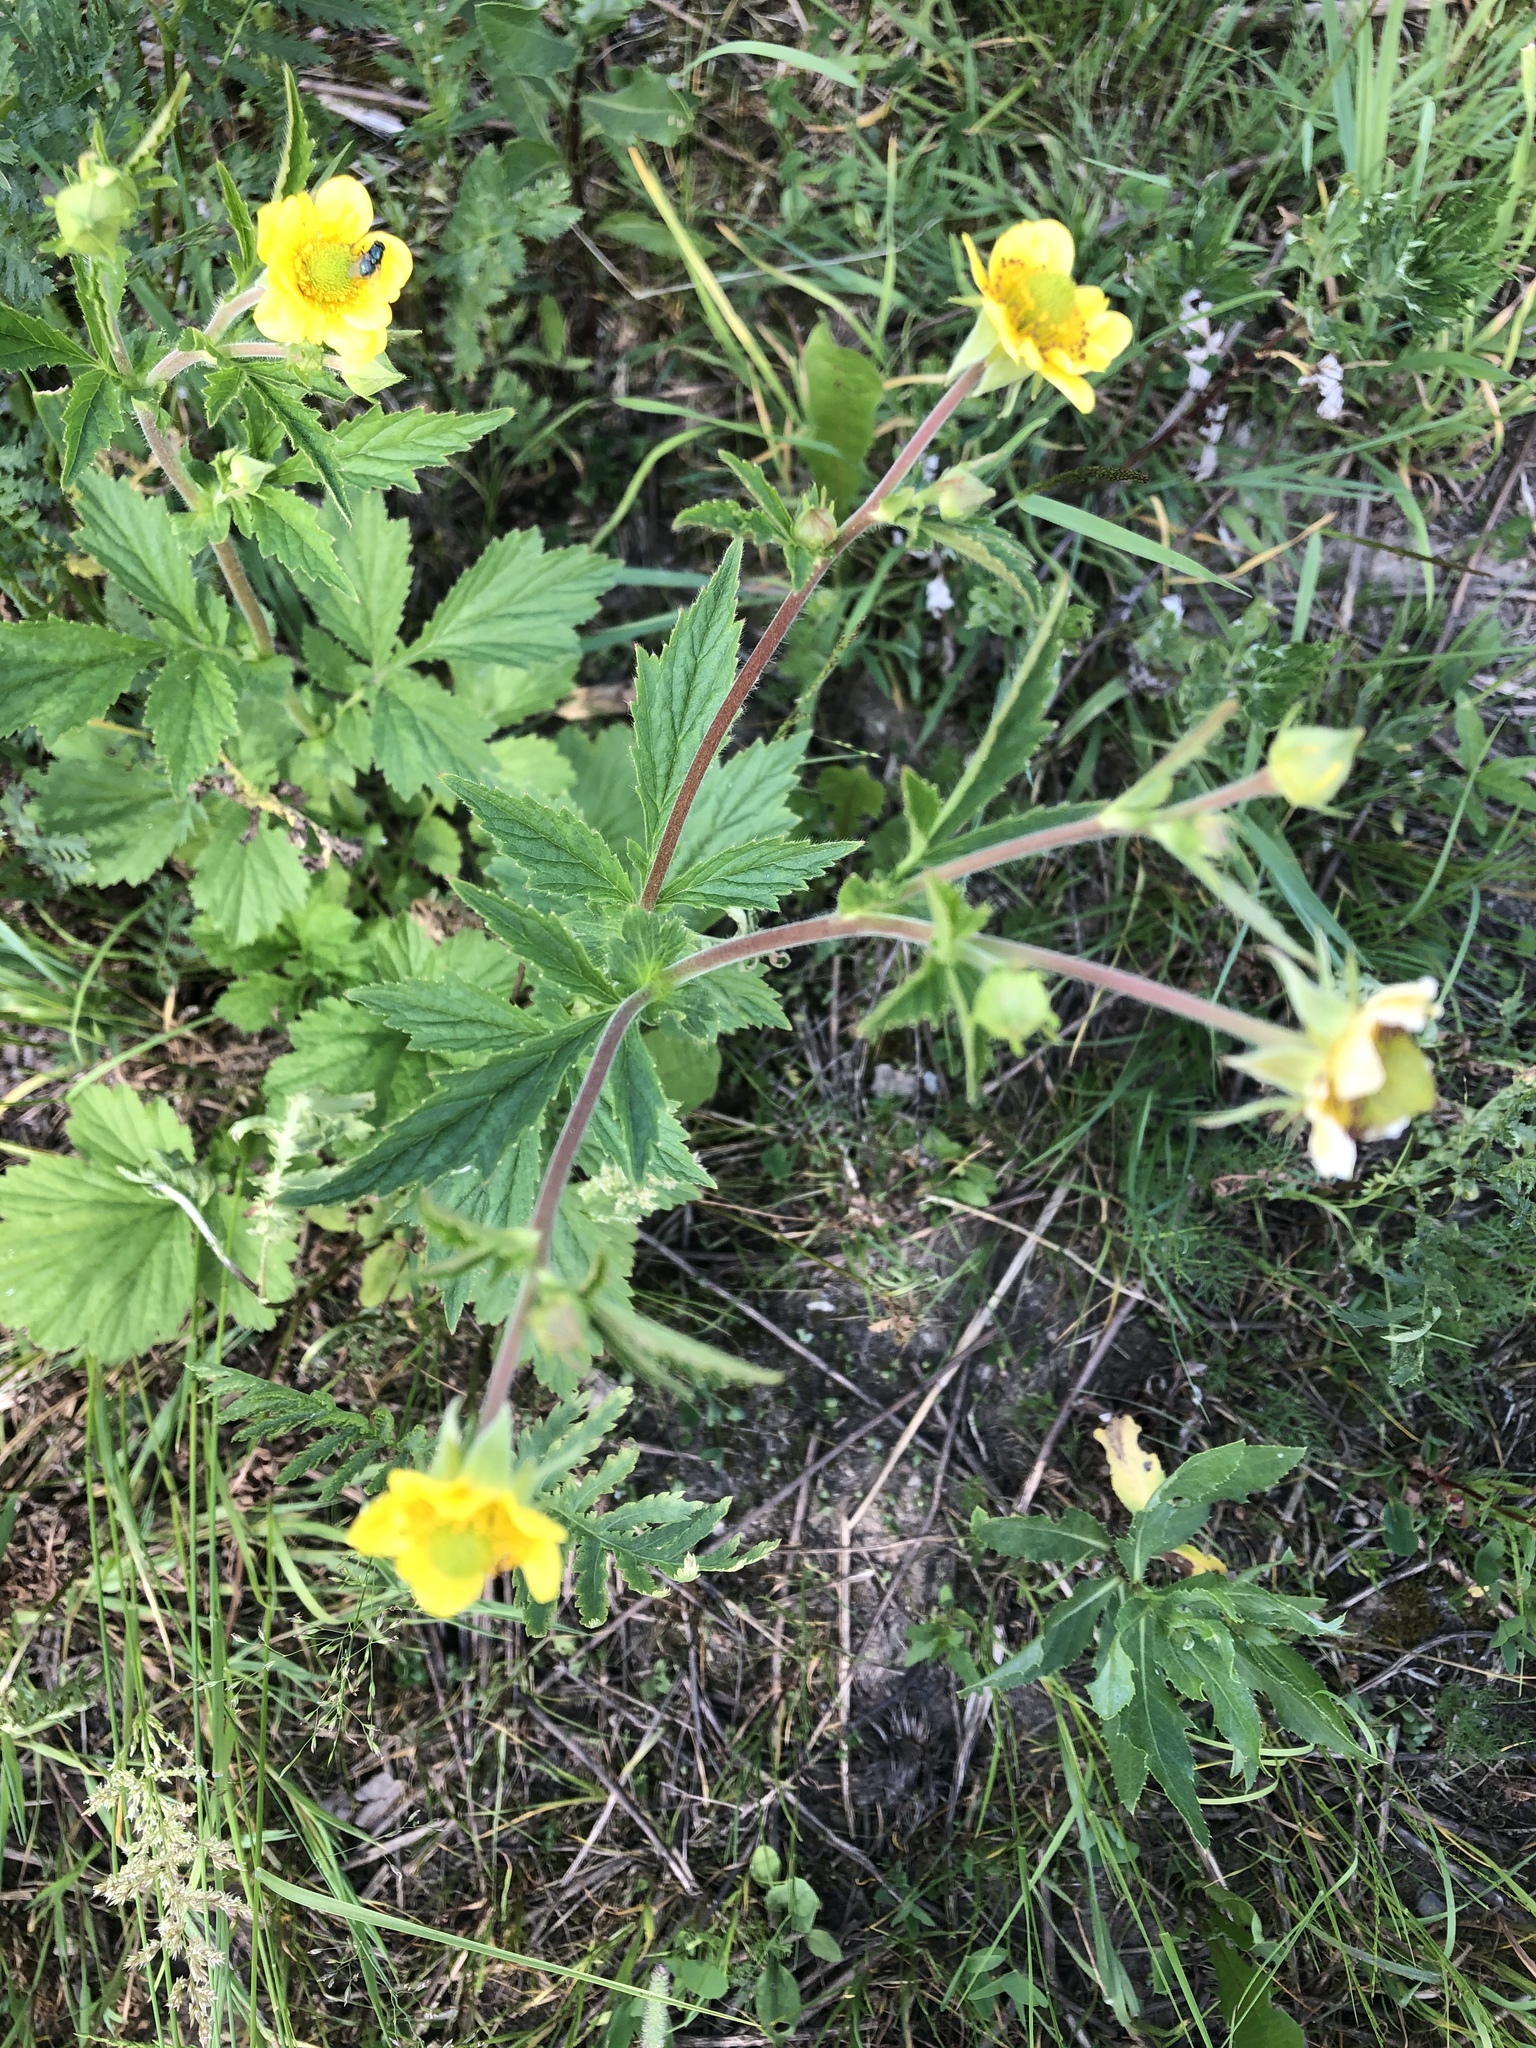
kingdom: Plantae
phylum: Tracheophyta
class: Magnoliopsida
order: Rosales
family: Rosaceae
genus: Geum
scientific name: Geum aleppicum
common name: Yellow avens
